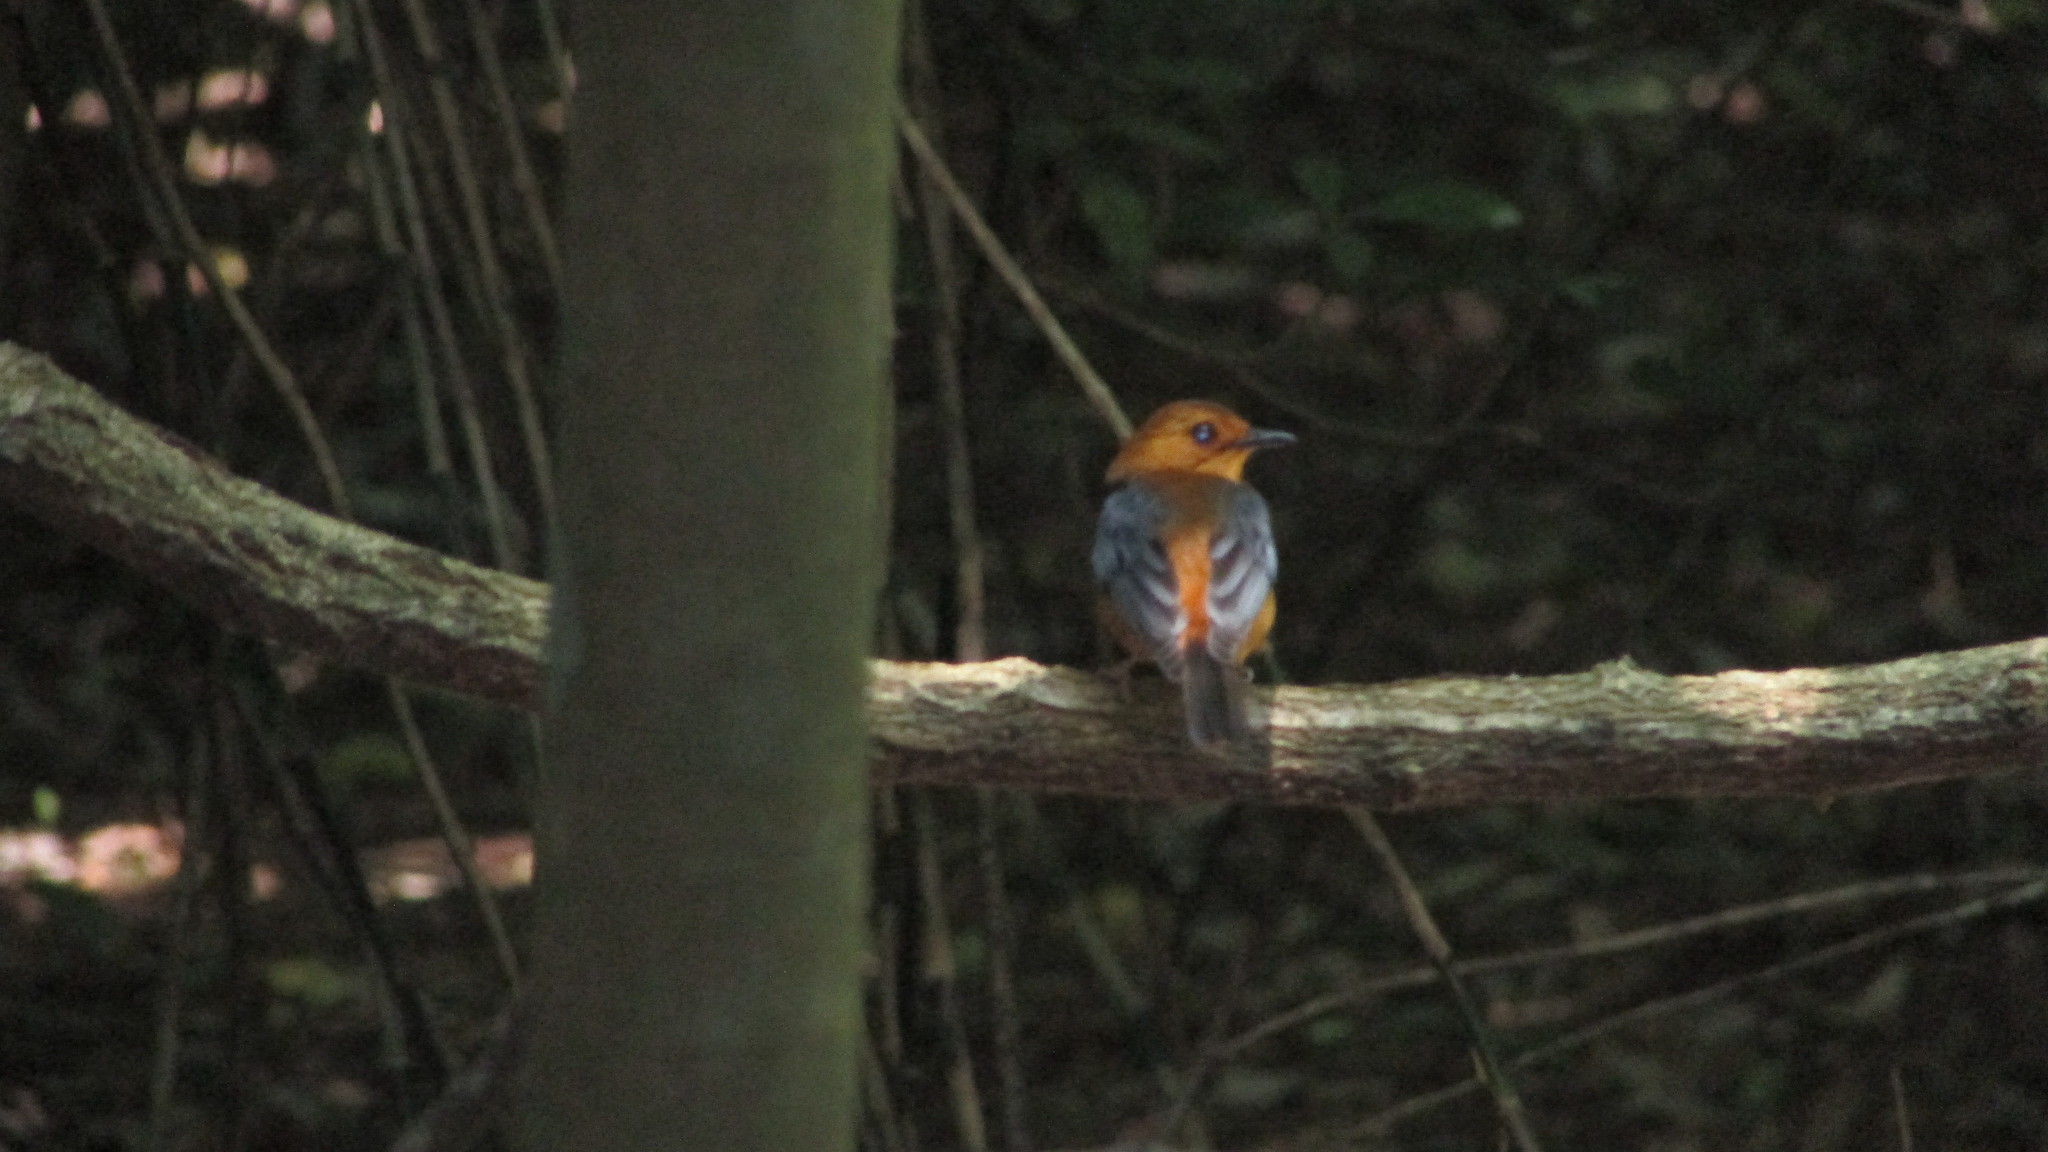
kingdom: Animalia
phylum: Chordata
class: Aves
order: Passeriformes
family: Muscicapidae
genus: Cossypha
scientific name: Cossypha natalensis
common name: Red-capped robin-chat
